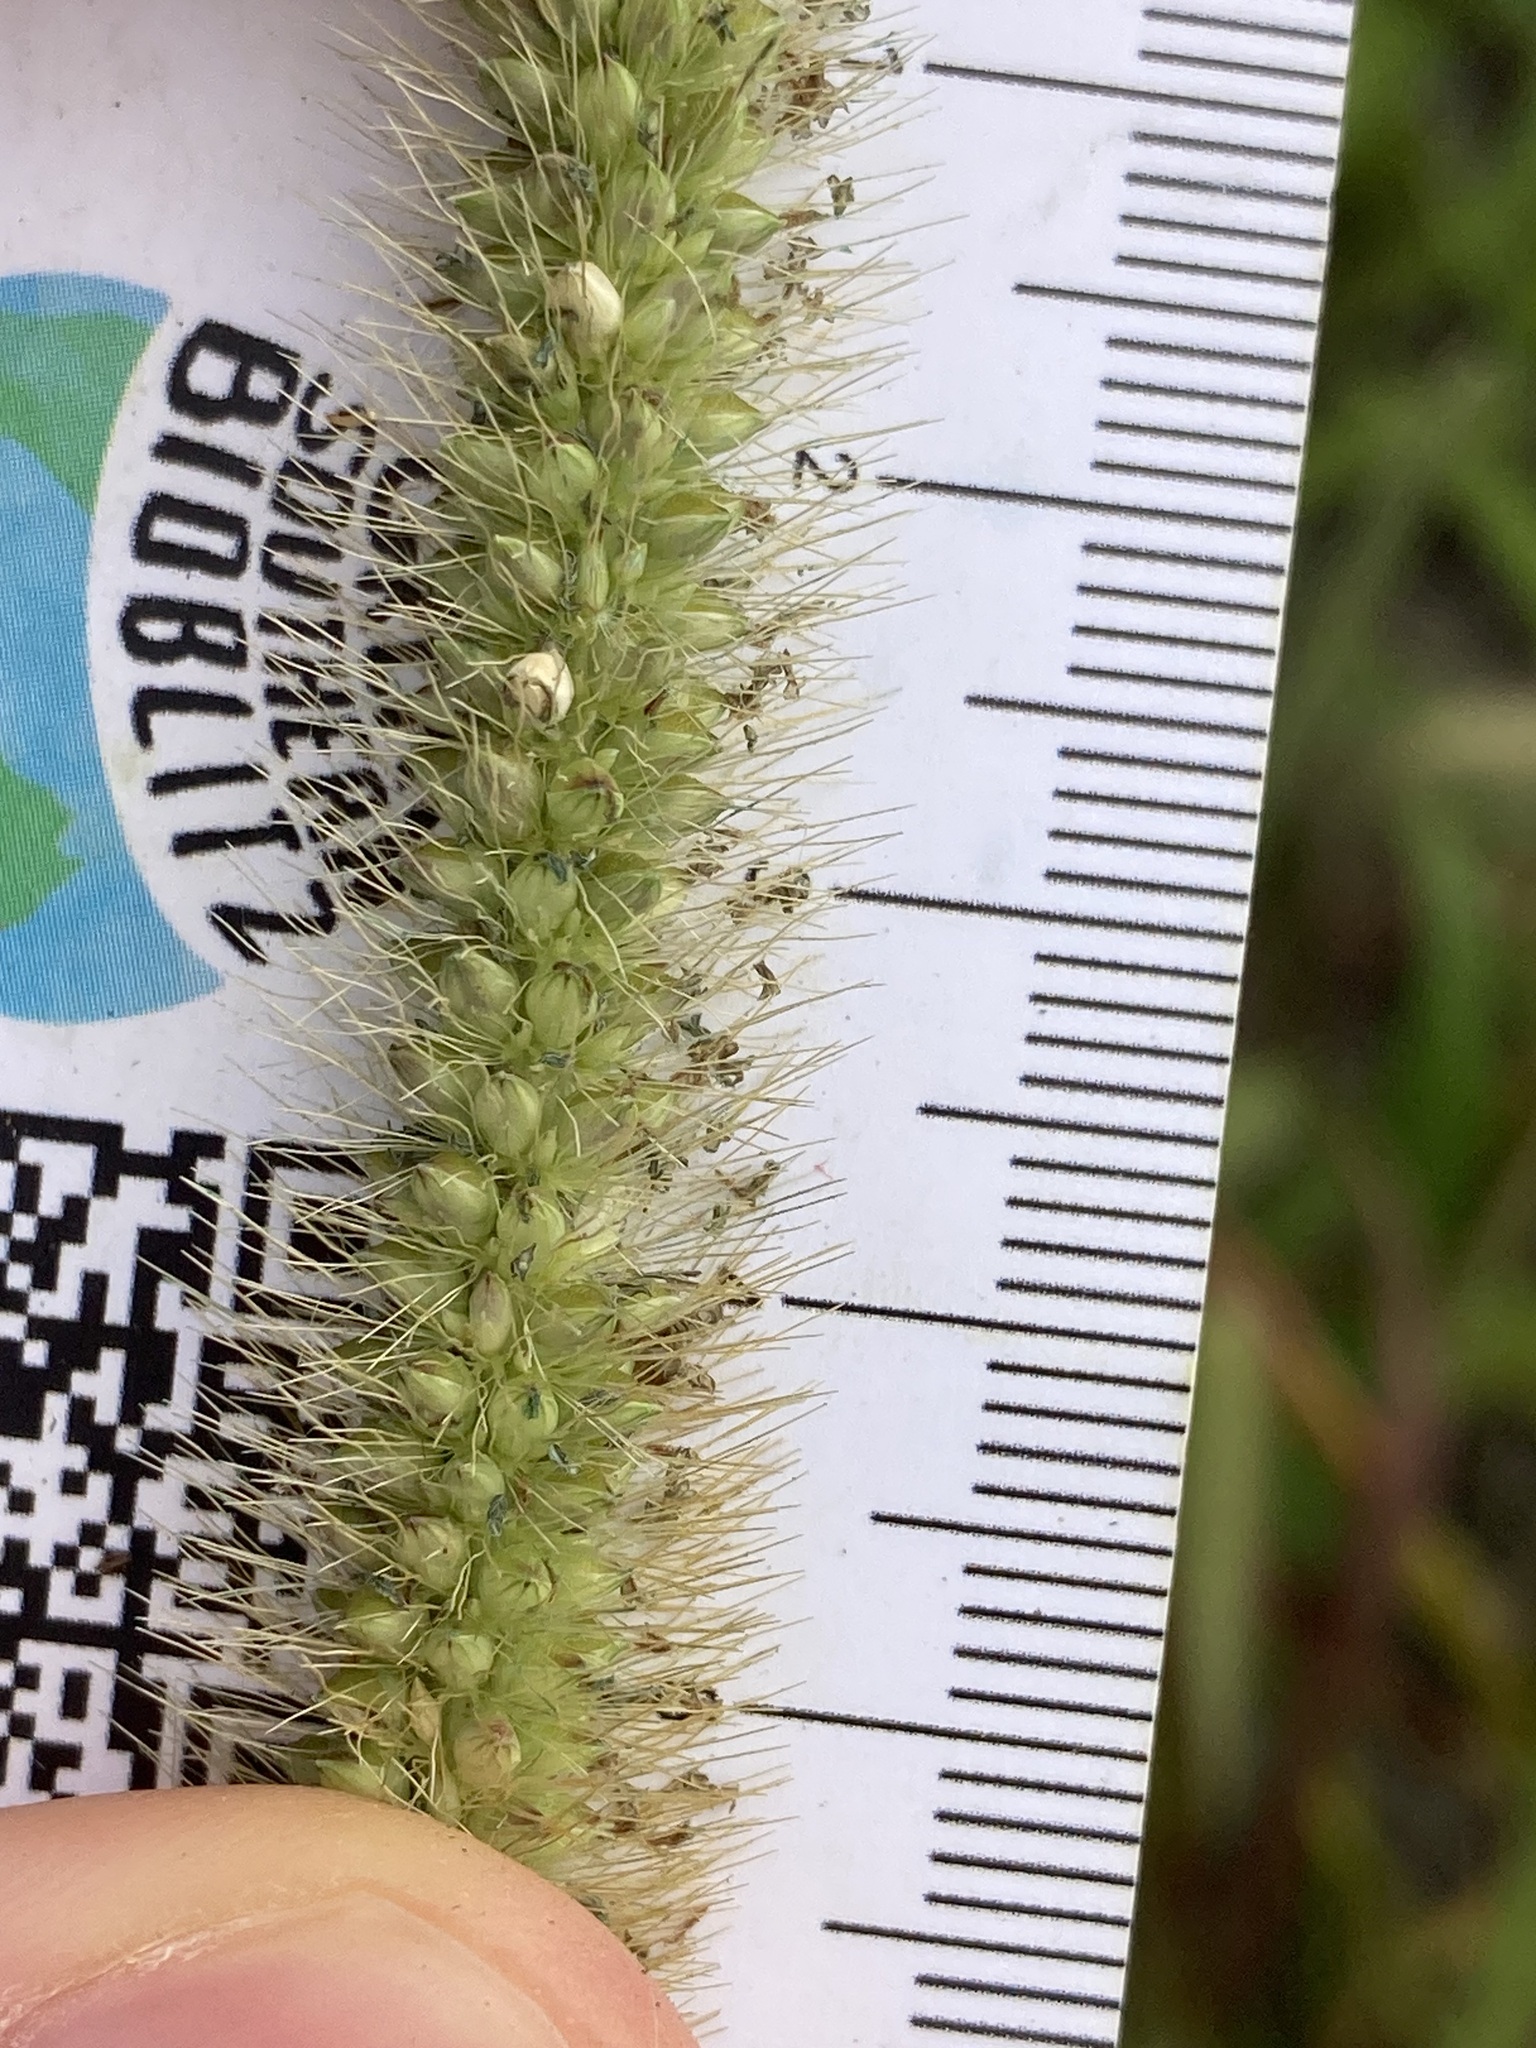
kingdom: Plantae
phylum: Tracheophyta
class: Liliopsida
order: Poales
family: Poaceae
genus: Setaria
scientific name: Setaria pumila
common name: Yellow bristle-grass
